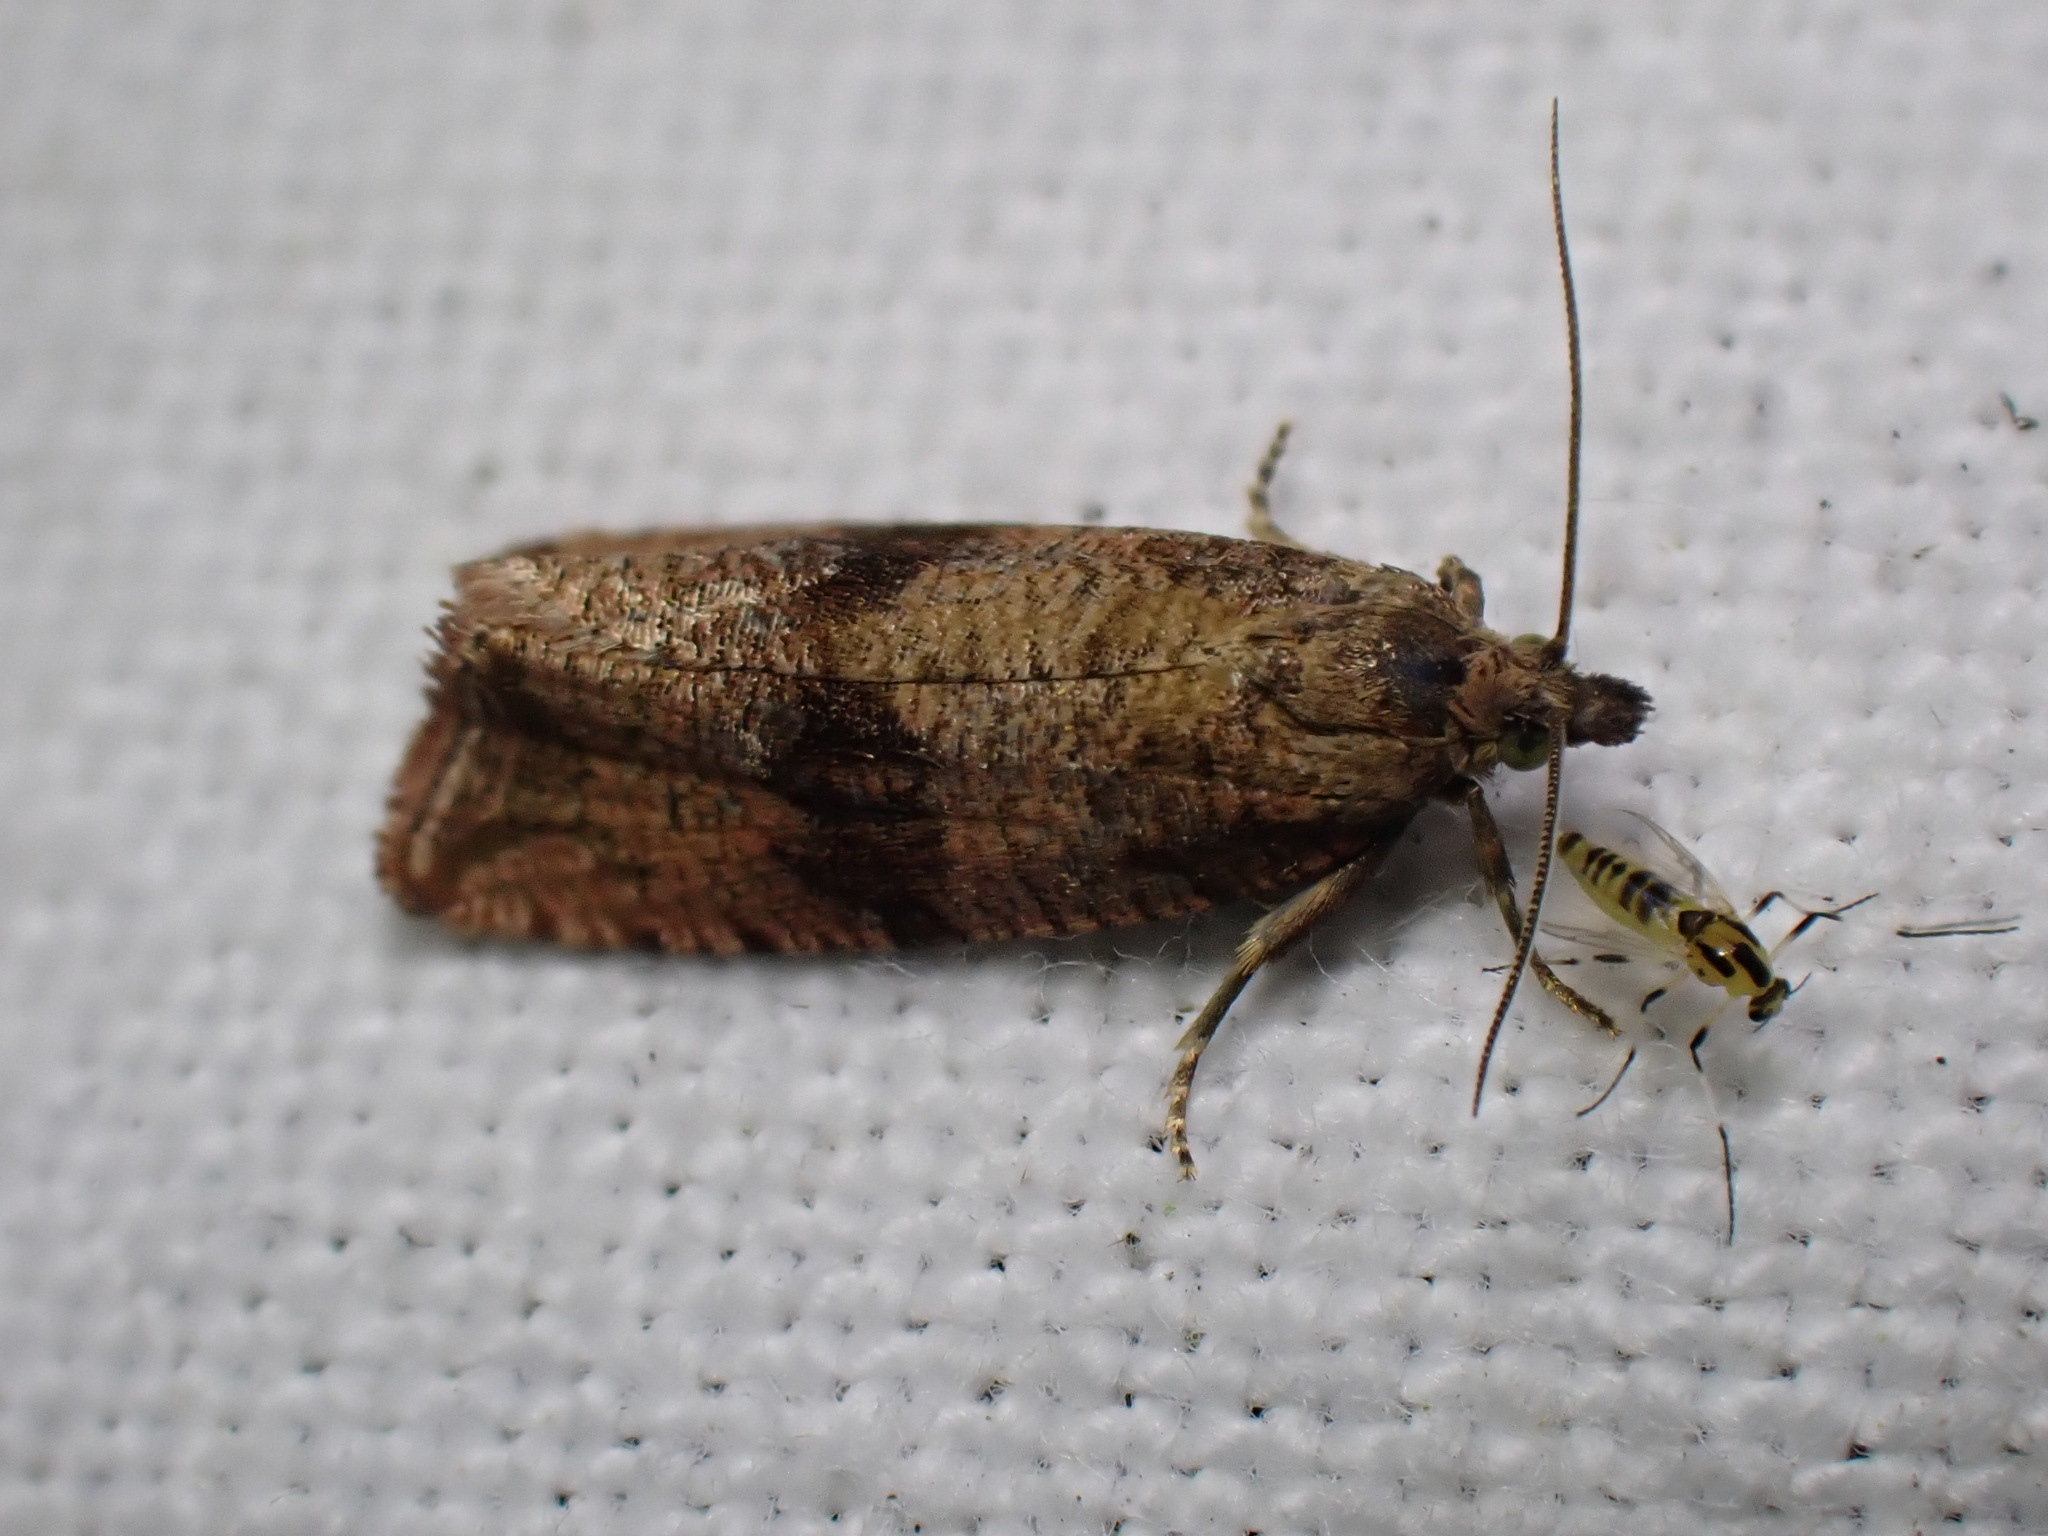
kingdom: Animalia
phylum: Arthropoda
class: Insecta
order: Lepidoptera
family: Tortricidae
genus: Celypha
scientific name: Celypha striana
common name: Barred marble
